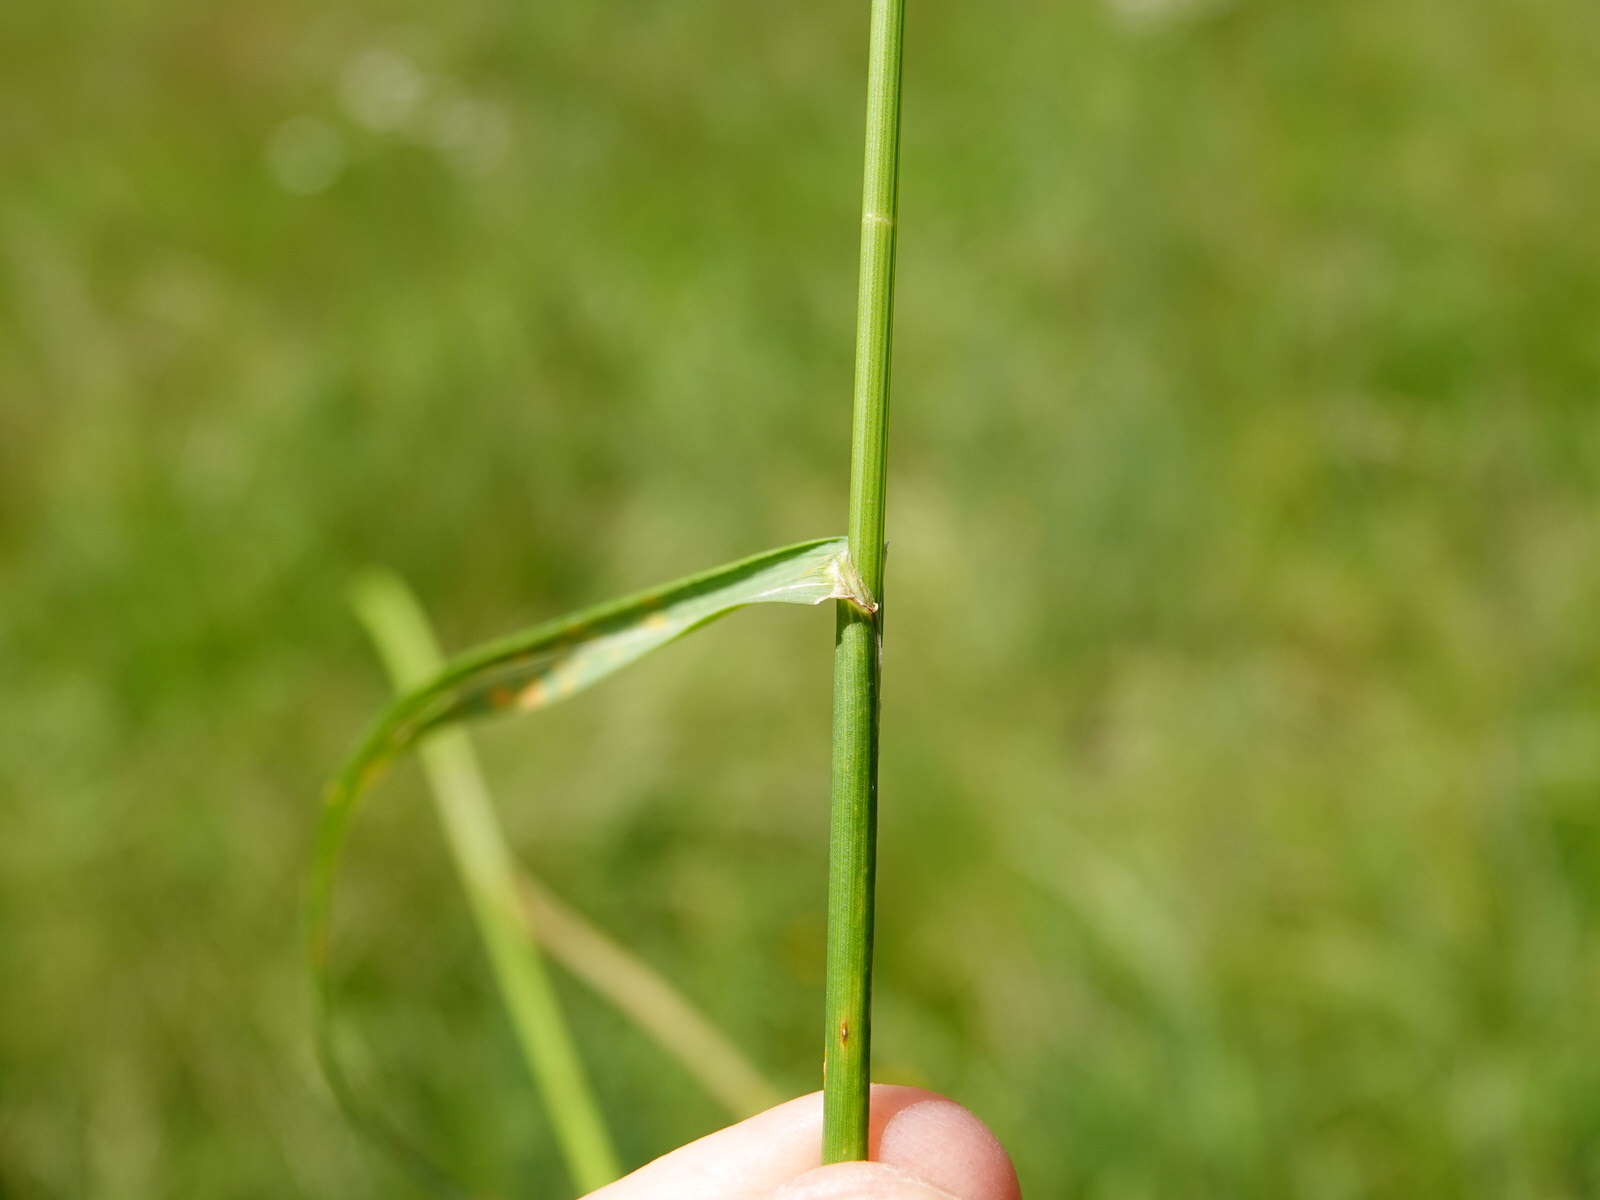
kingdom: Plantae
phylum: Tracheophyta
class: Liliopsida
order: Poales
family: Poaceae
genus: Lolium
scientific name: Lolium perenne
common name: Perennial ryegrass
